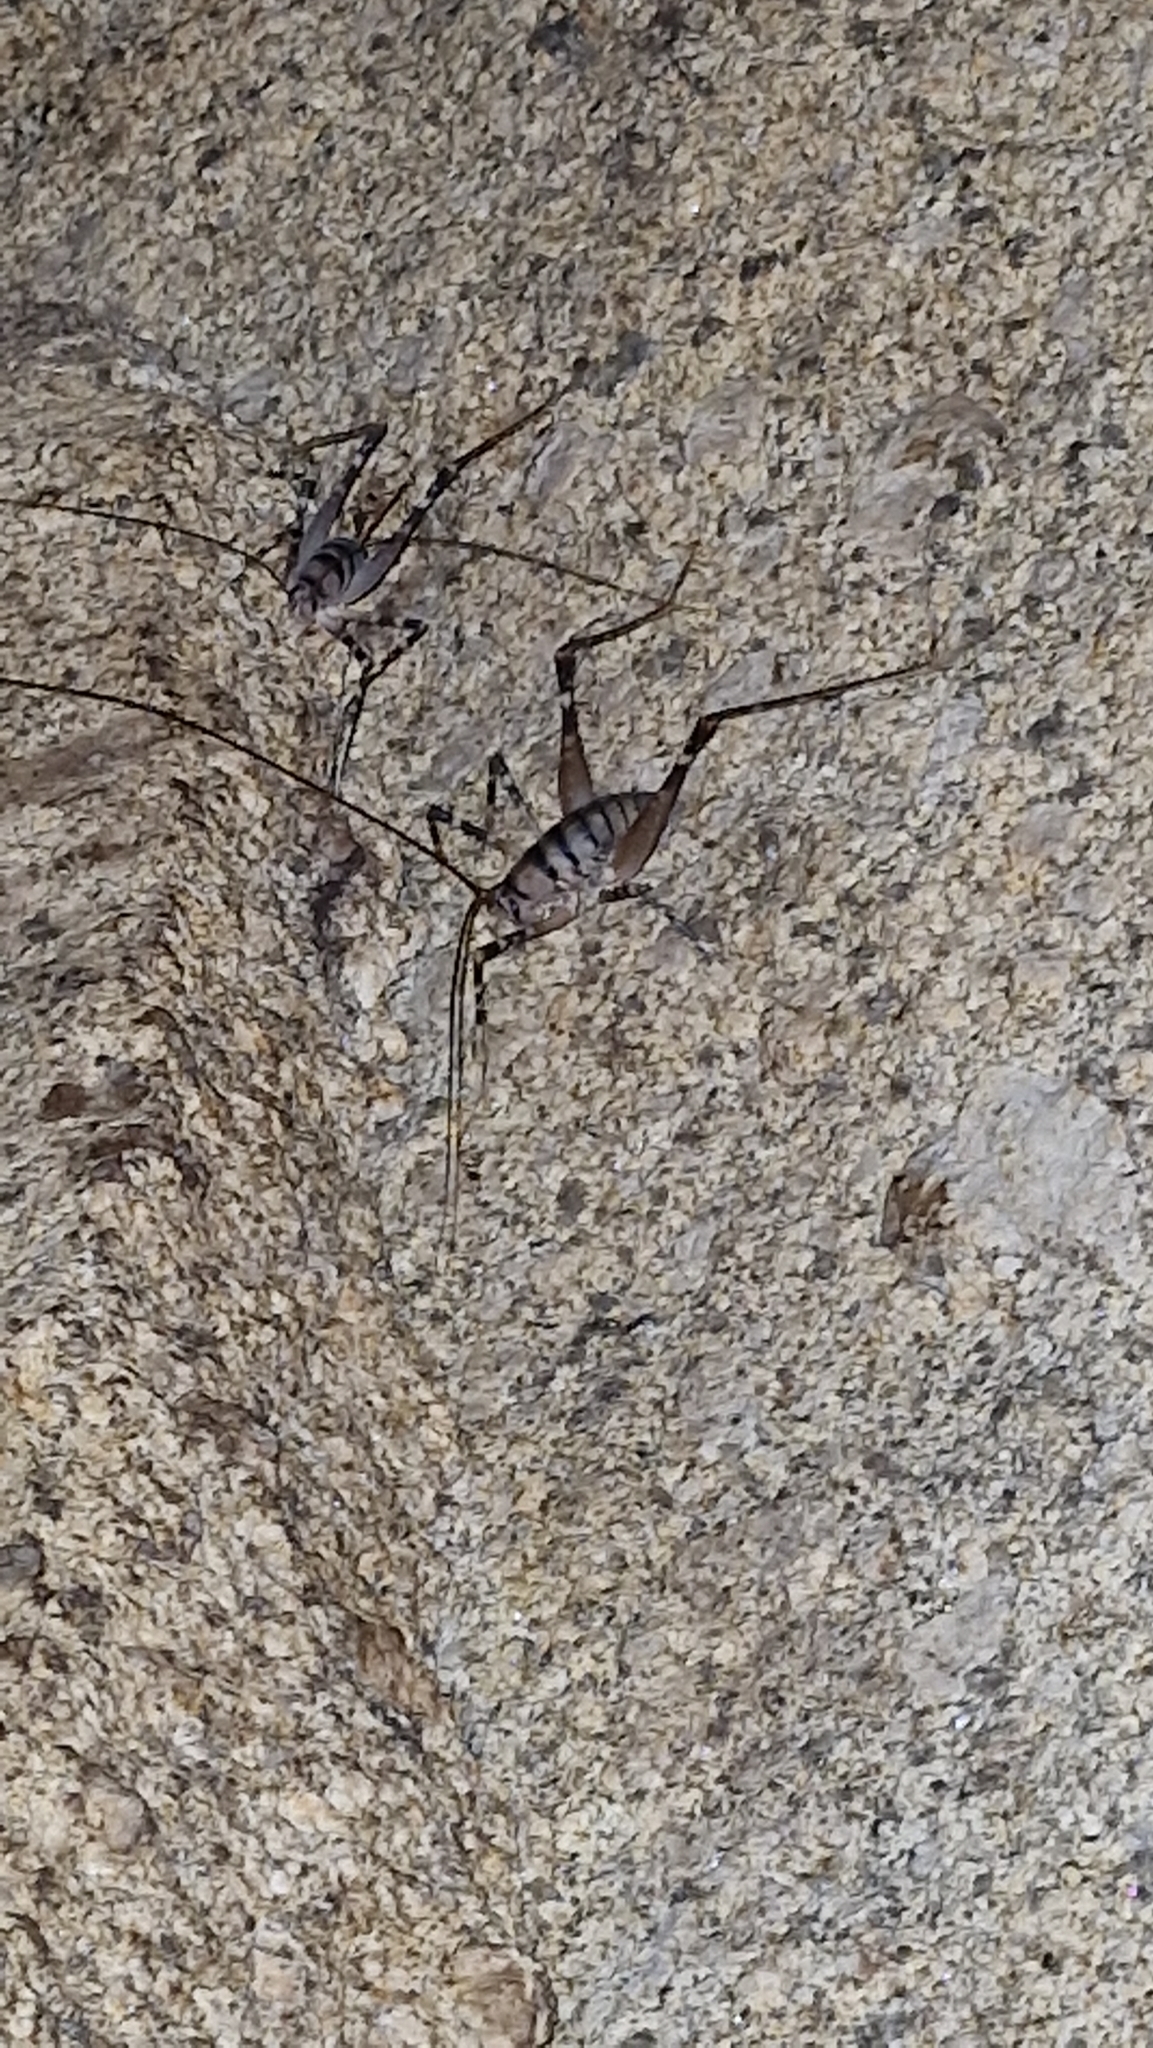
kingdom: Animalia
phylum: Arthropoda
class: Insecta
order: Orthoptera
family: Rhaphidophoridae
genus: Pachyrhamma
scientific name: Pachyrhamma edwardsii
